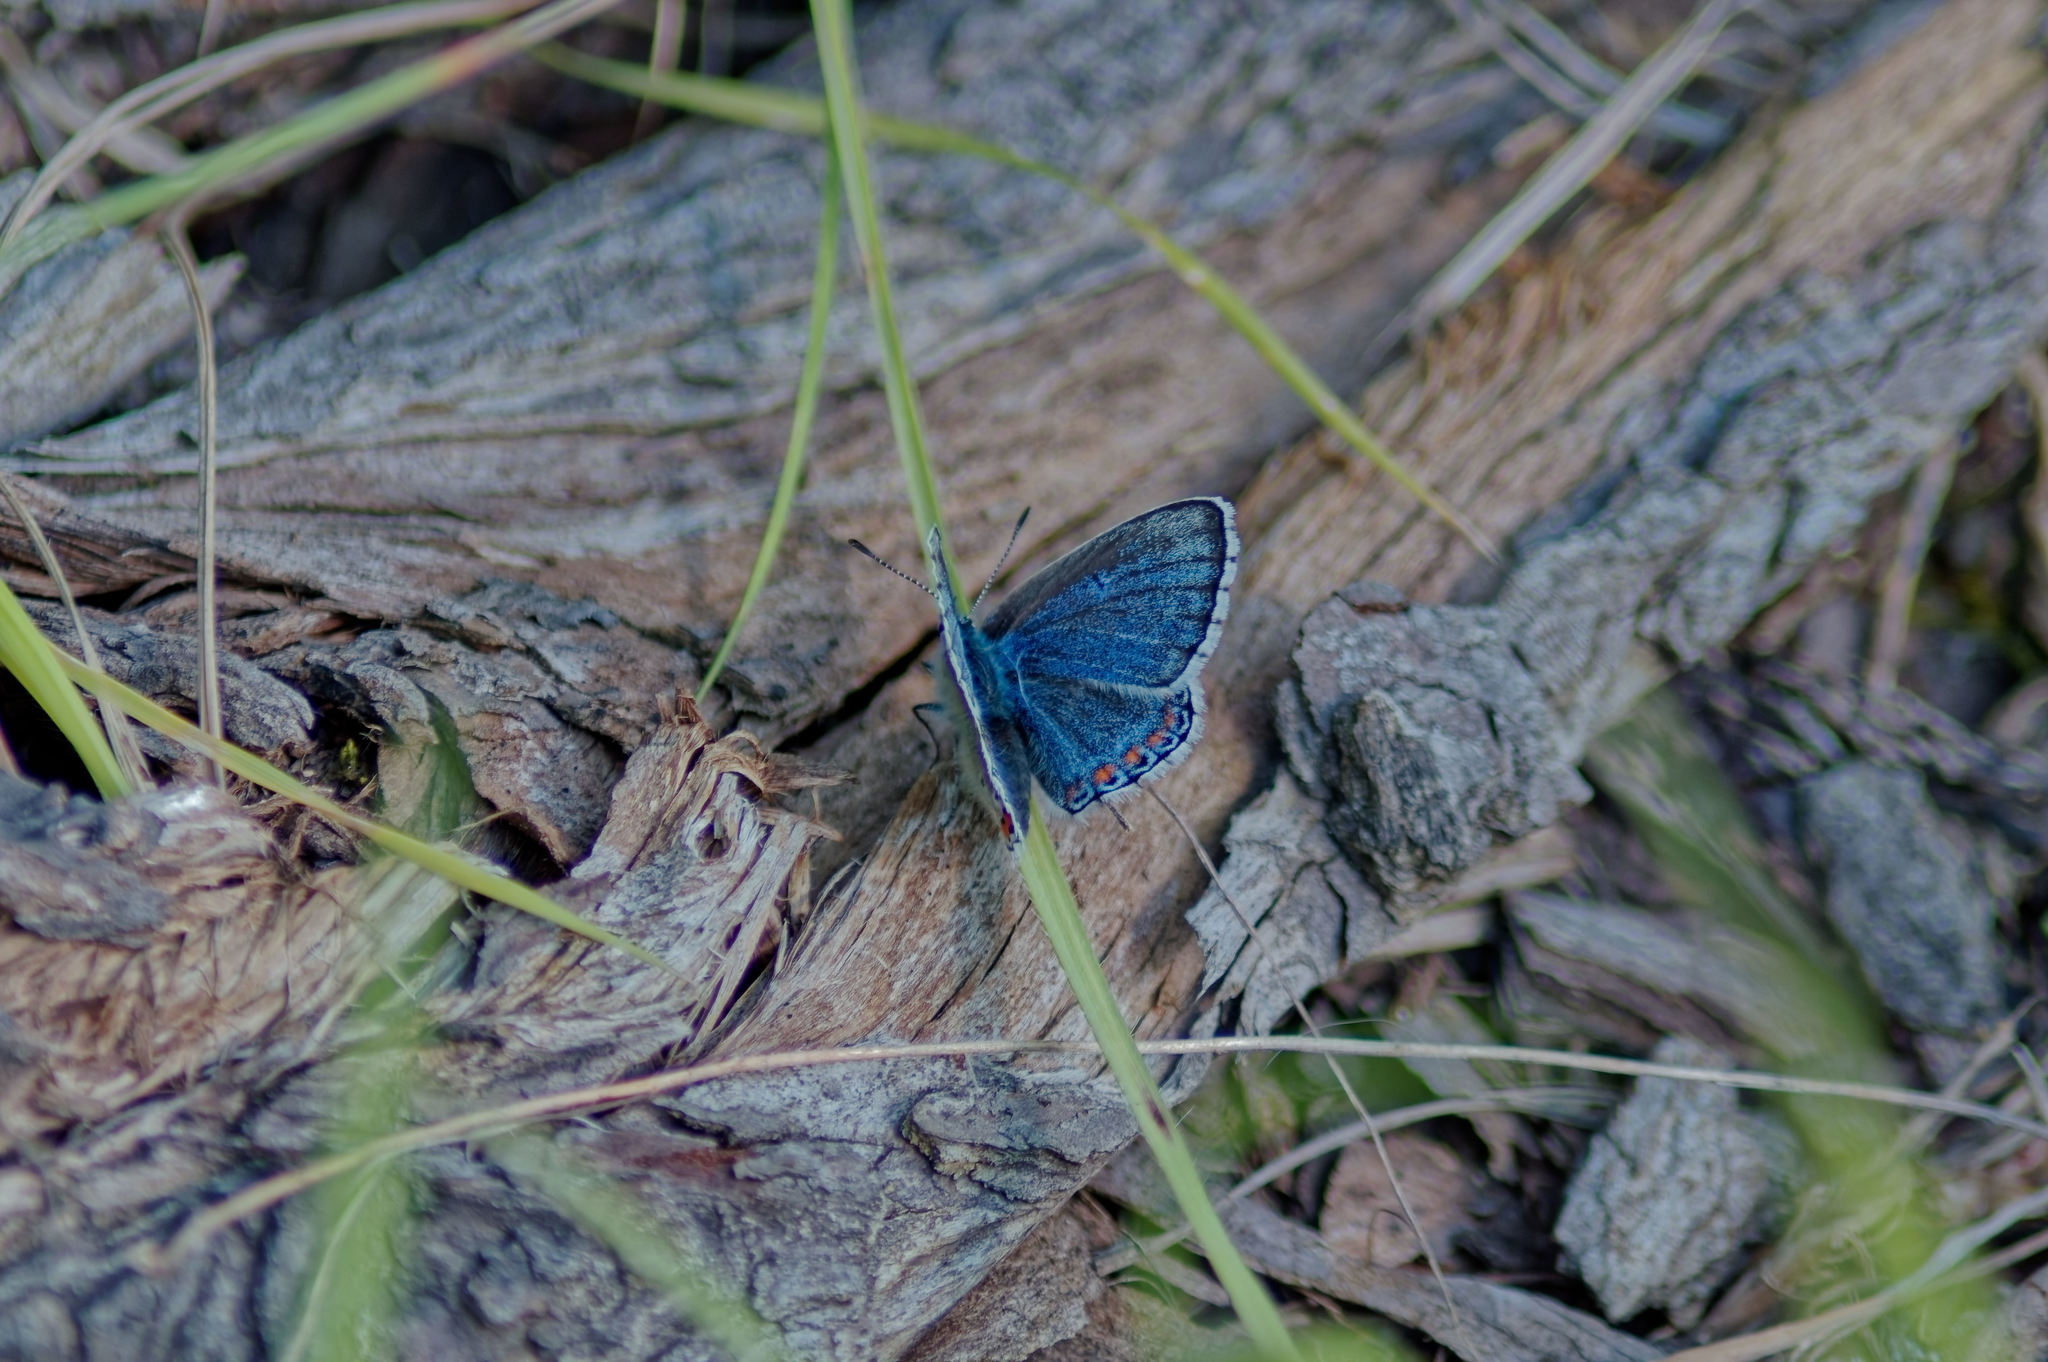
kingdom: Animalia
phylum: Arthropoda
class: Insecta
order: Lepidoptera
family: Lycaenidae
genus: Lysandra
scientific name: Lysandra bellargus
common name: Adonis blue
